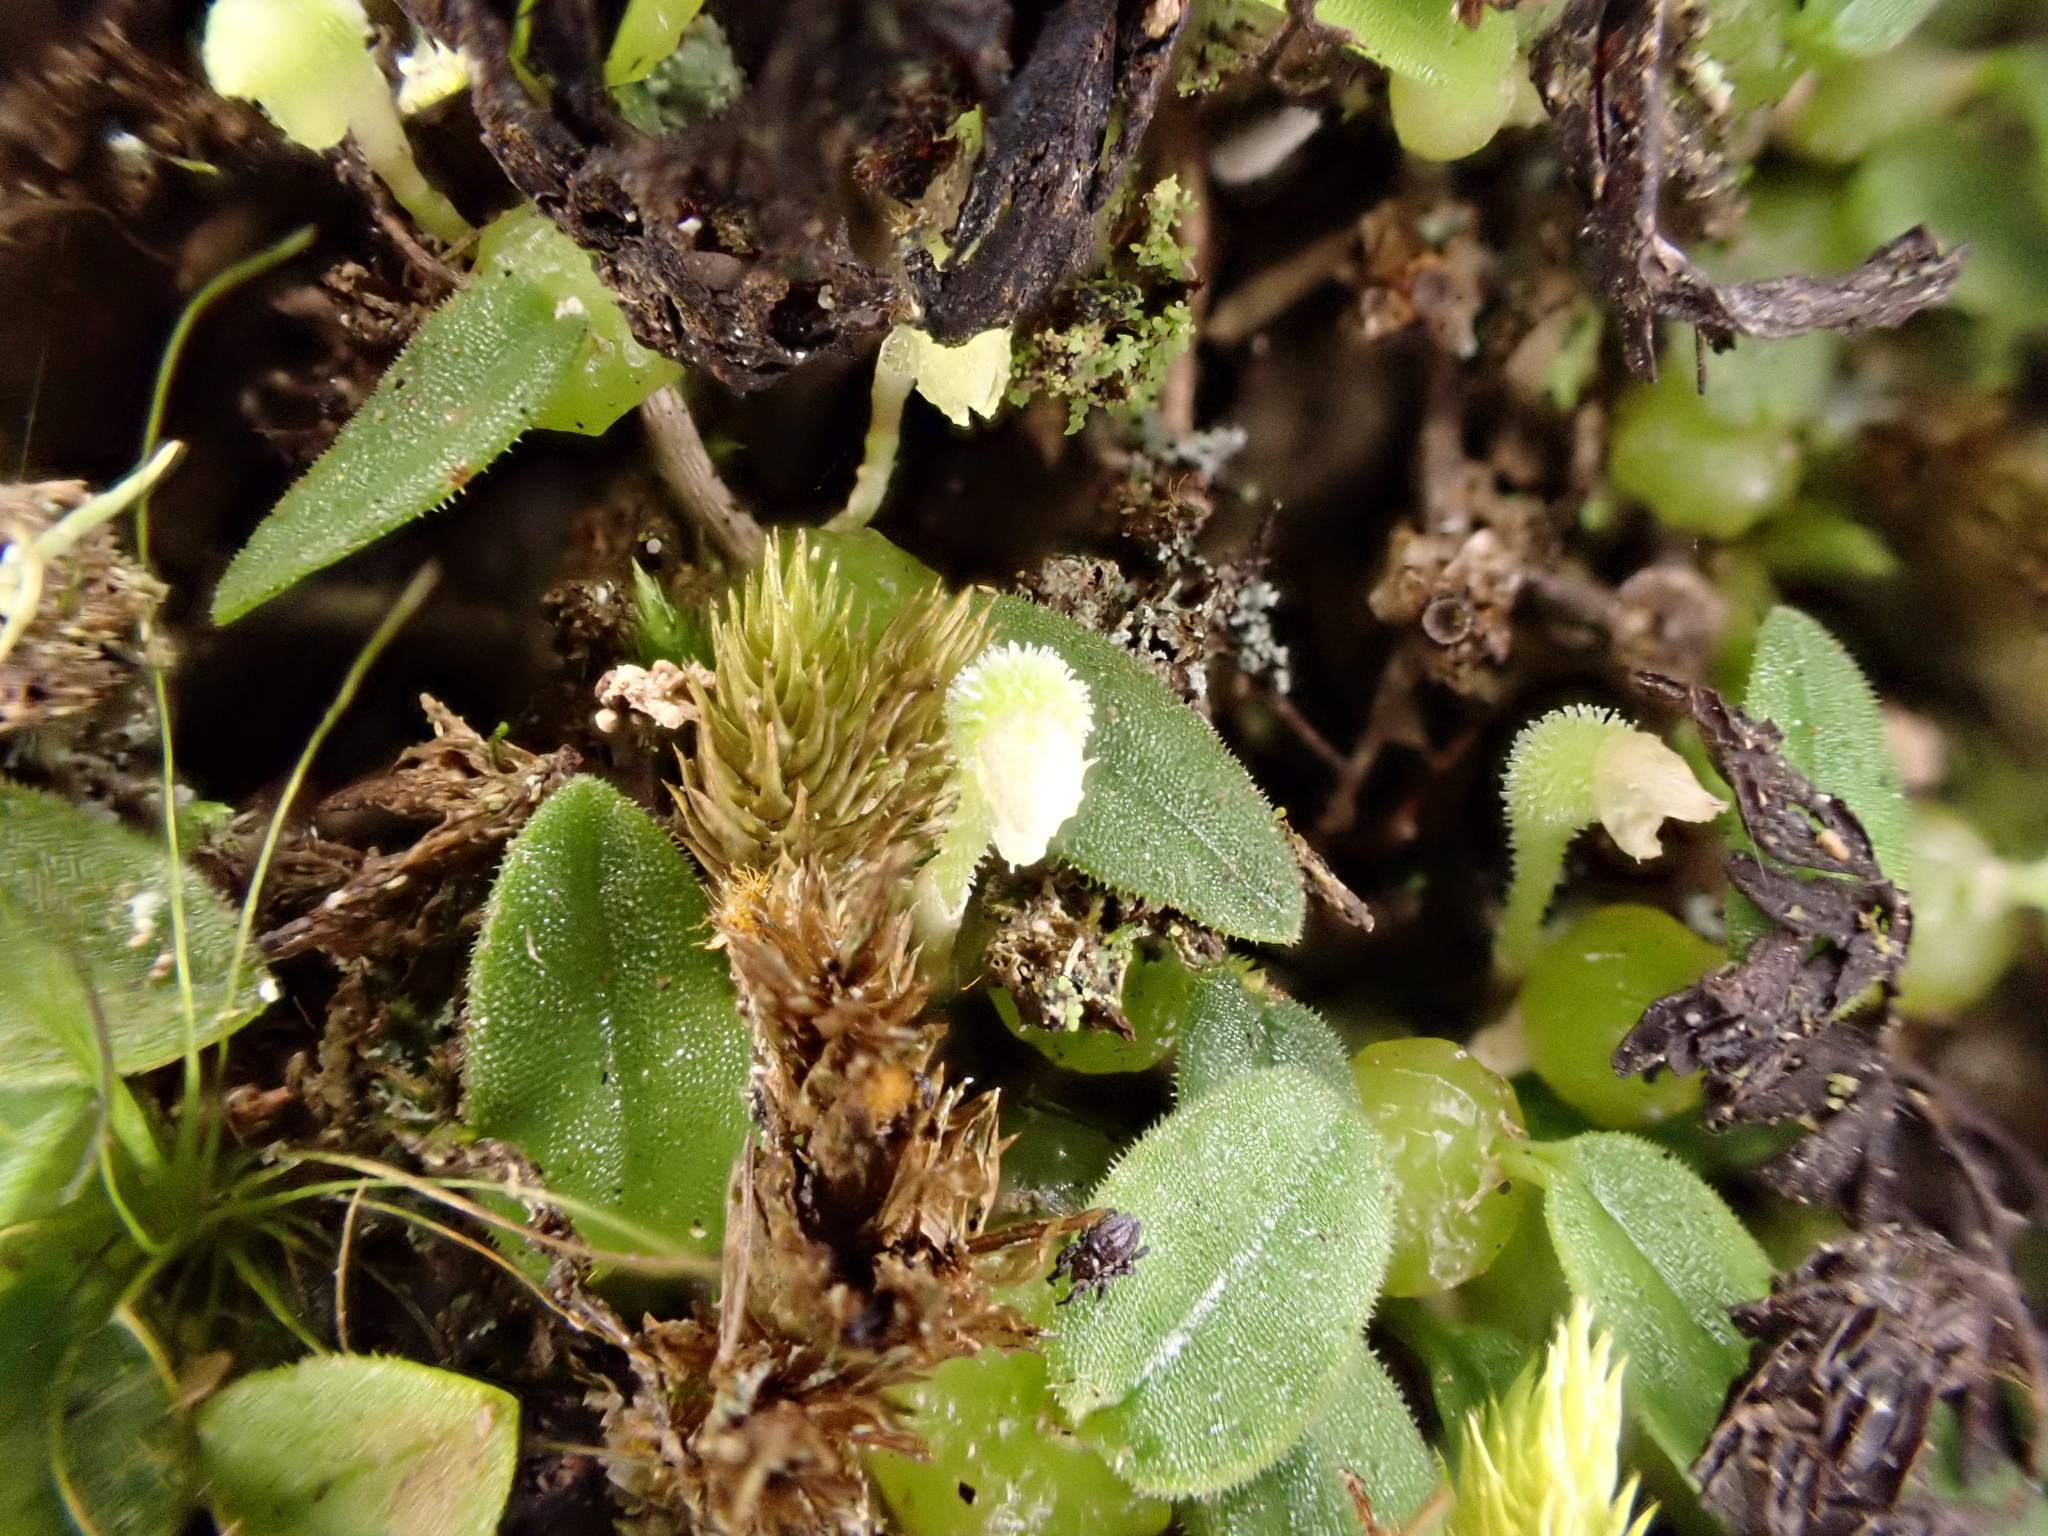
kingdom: Plantae
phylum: Tracheophyta
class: Liliopsida
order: Asparagales
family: Orchidaceae
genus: Bulbophyllum
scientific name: Bulbophyllum pygmaeum
